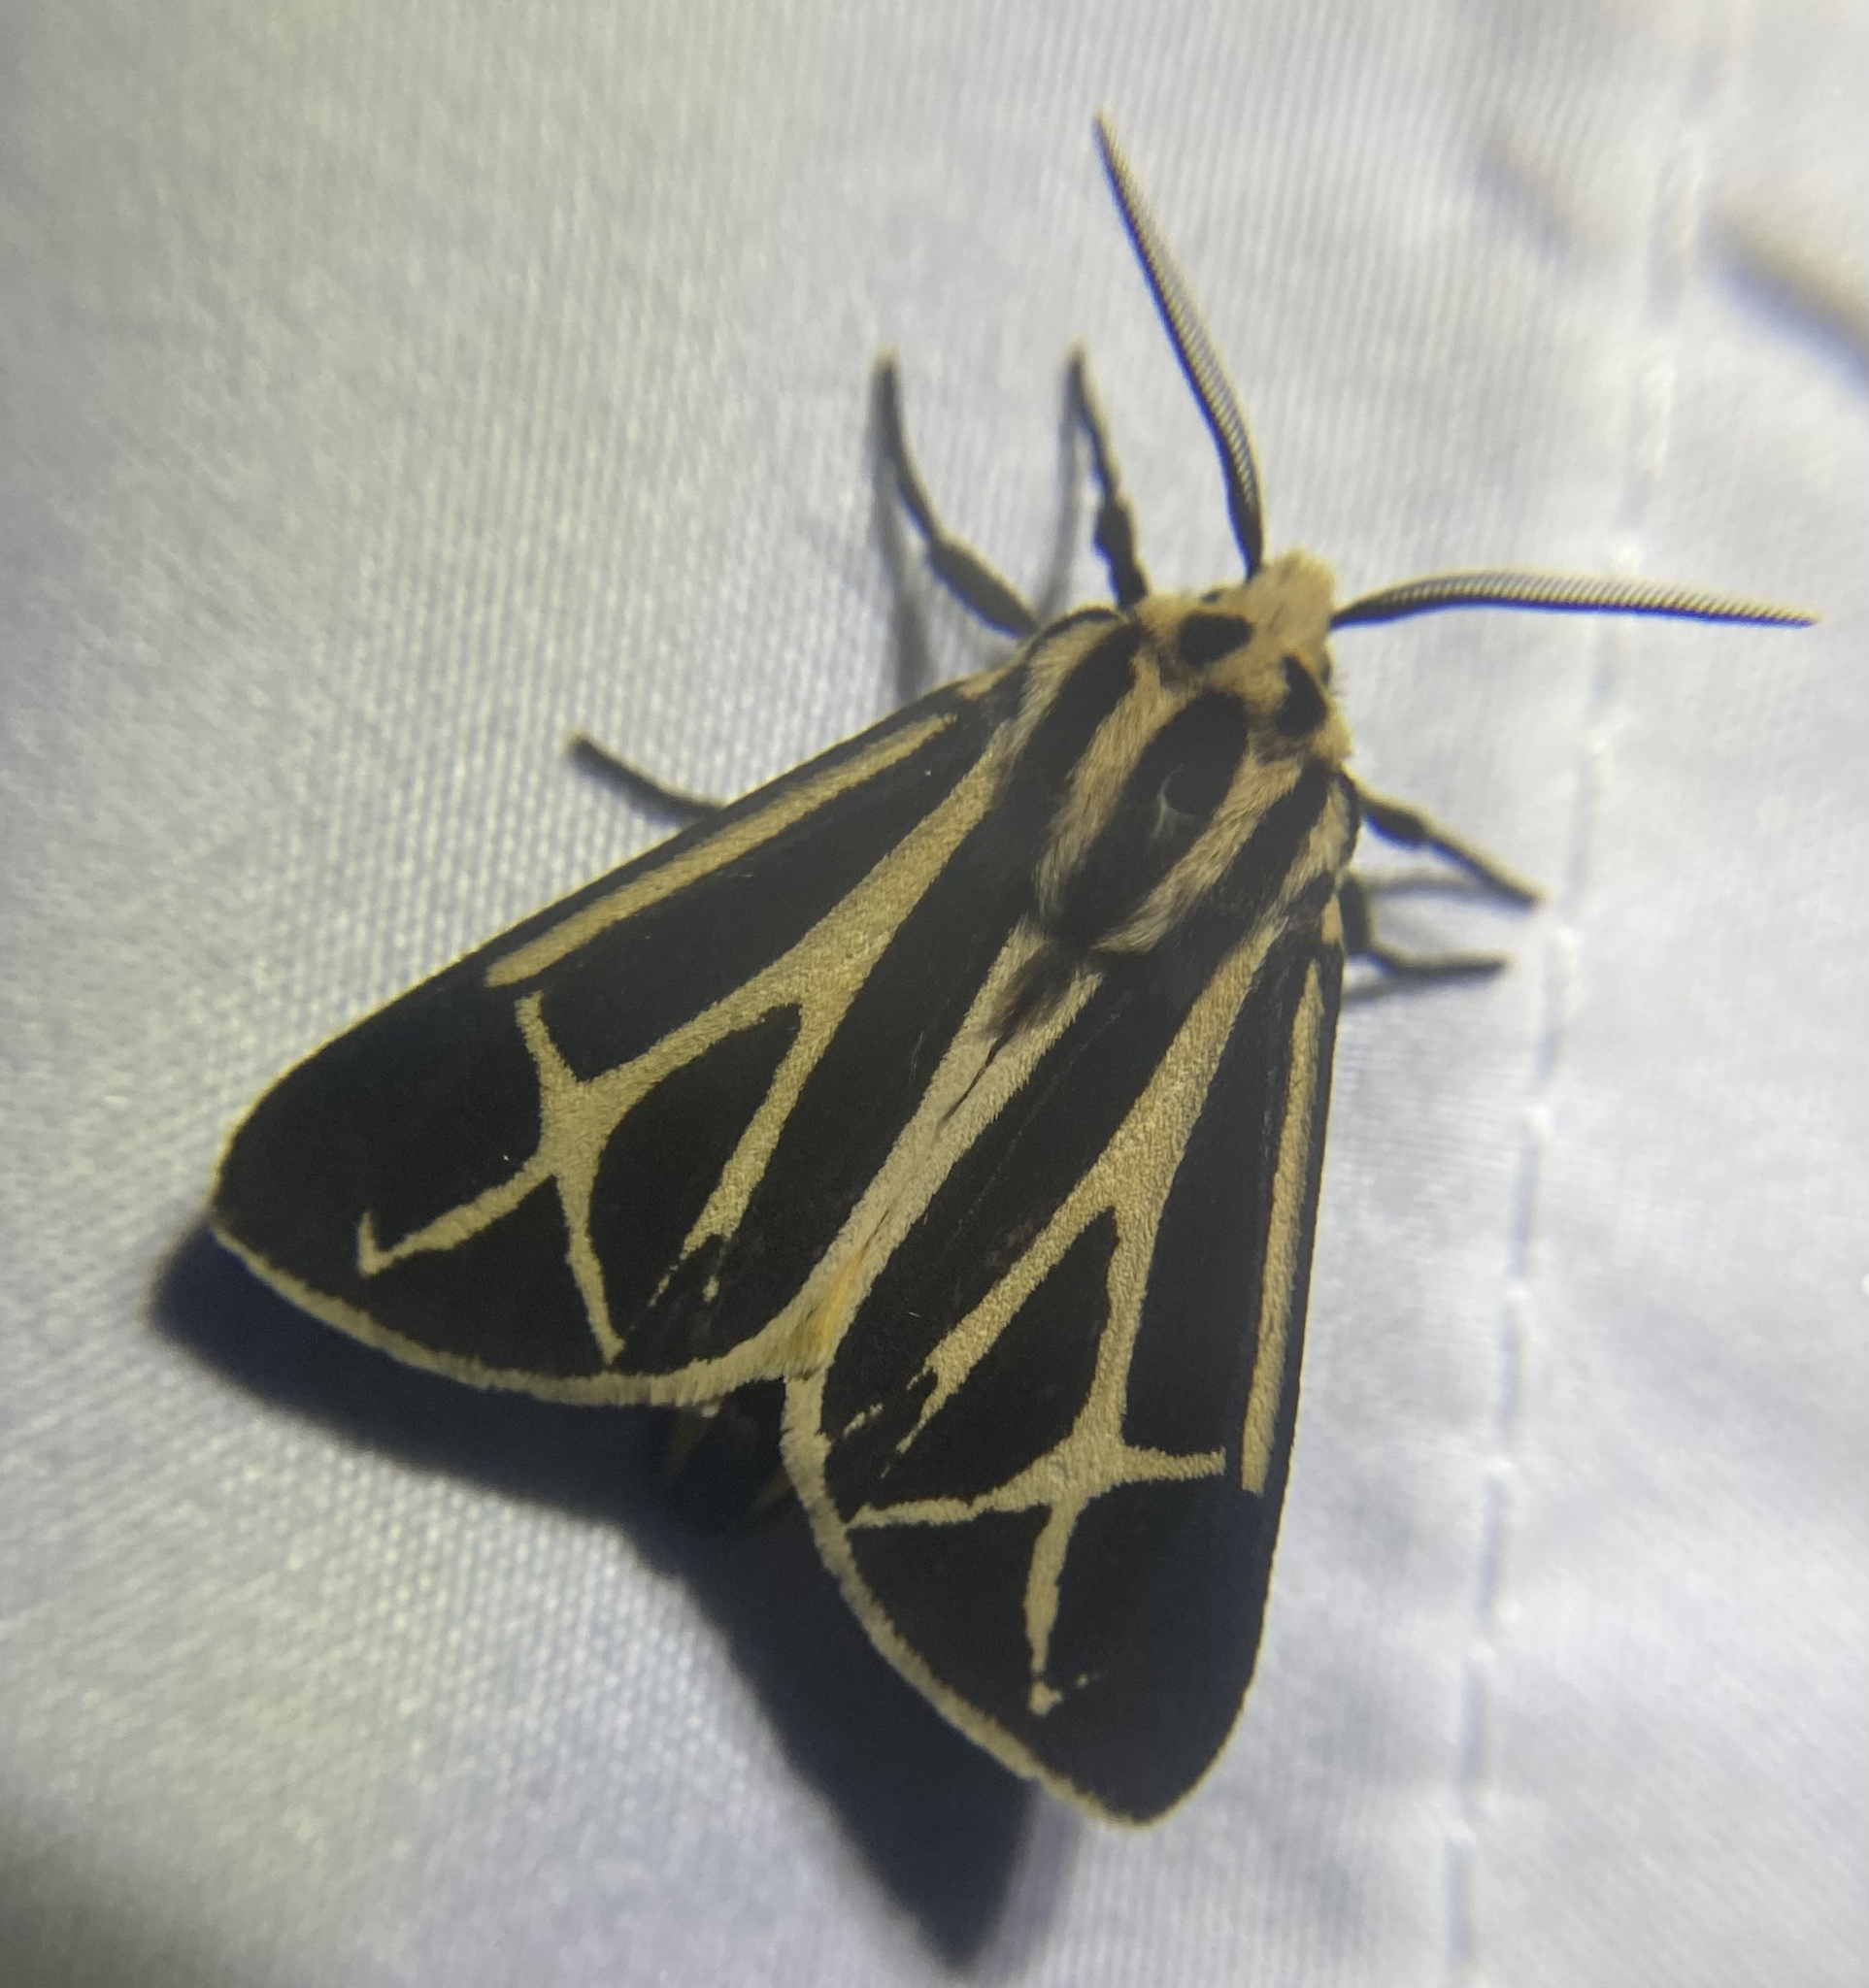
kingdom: Animalia
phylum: Arthropoda
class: Insecta
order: Lepidoptera
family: Erebidae
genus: Apantesis
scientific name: Apantesis phalerata
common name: Harnessed tiger moth
